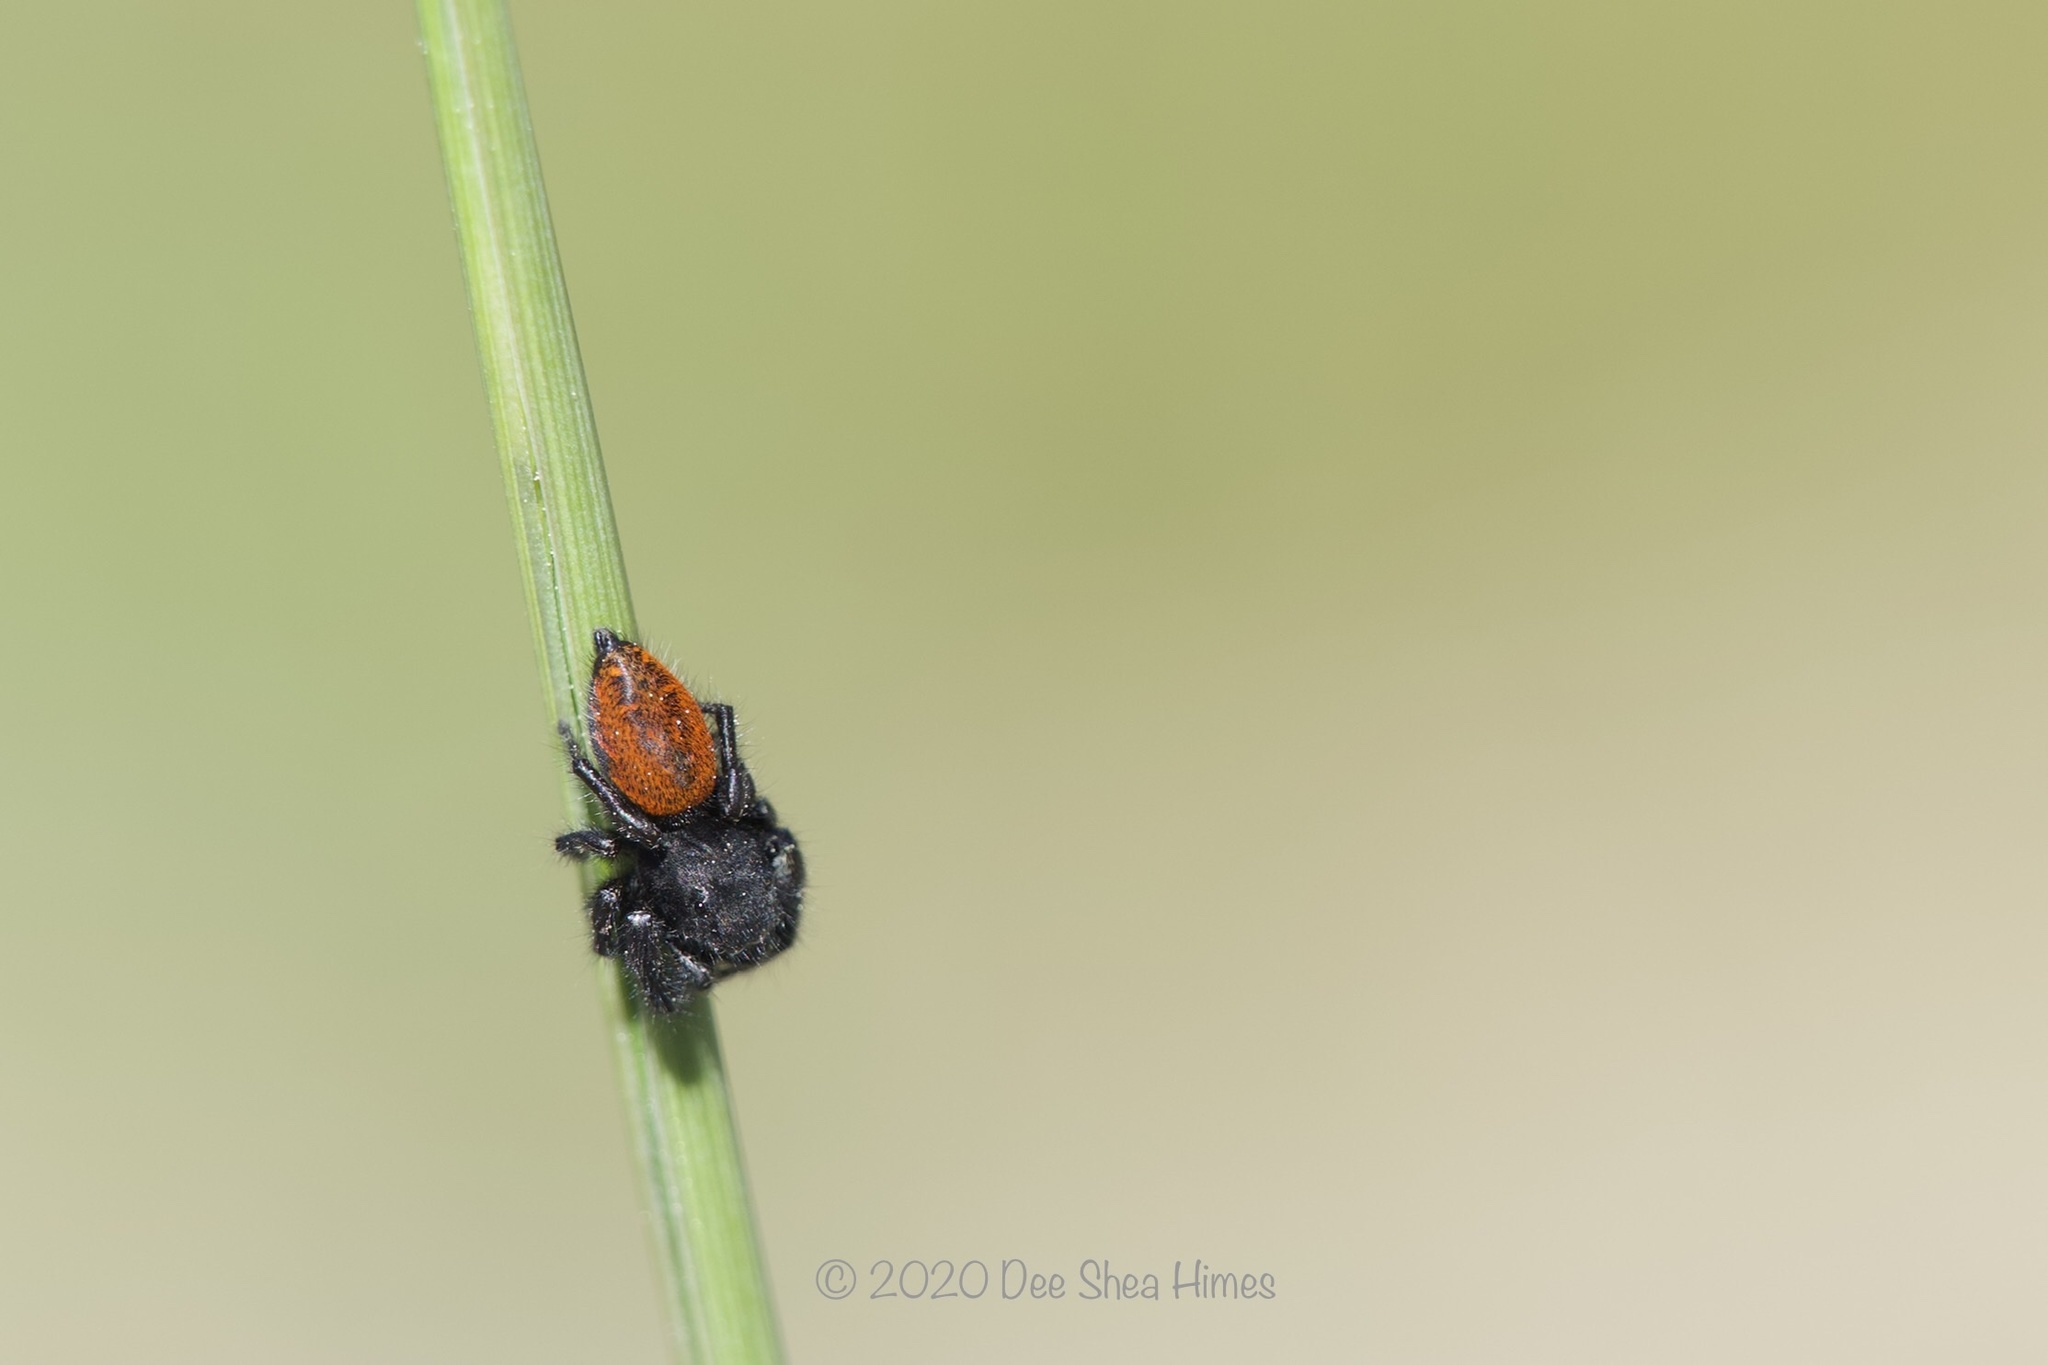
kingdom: Animalia
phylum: Arthropoda
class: Arachnida
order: Araneae
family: Salticidae
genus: Phidippus
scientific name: Phidippus johnsoni
